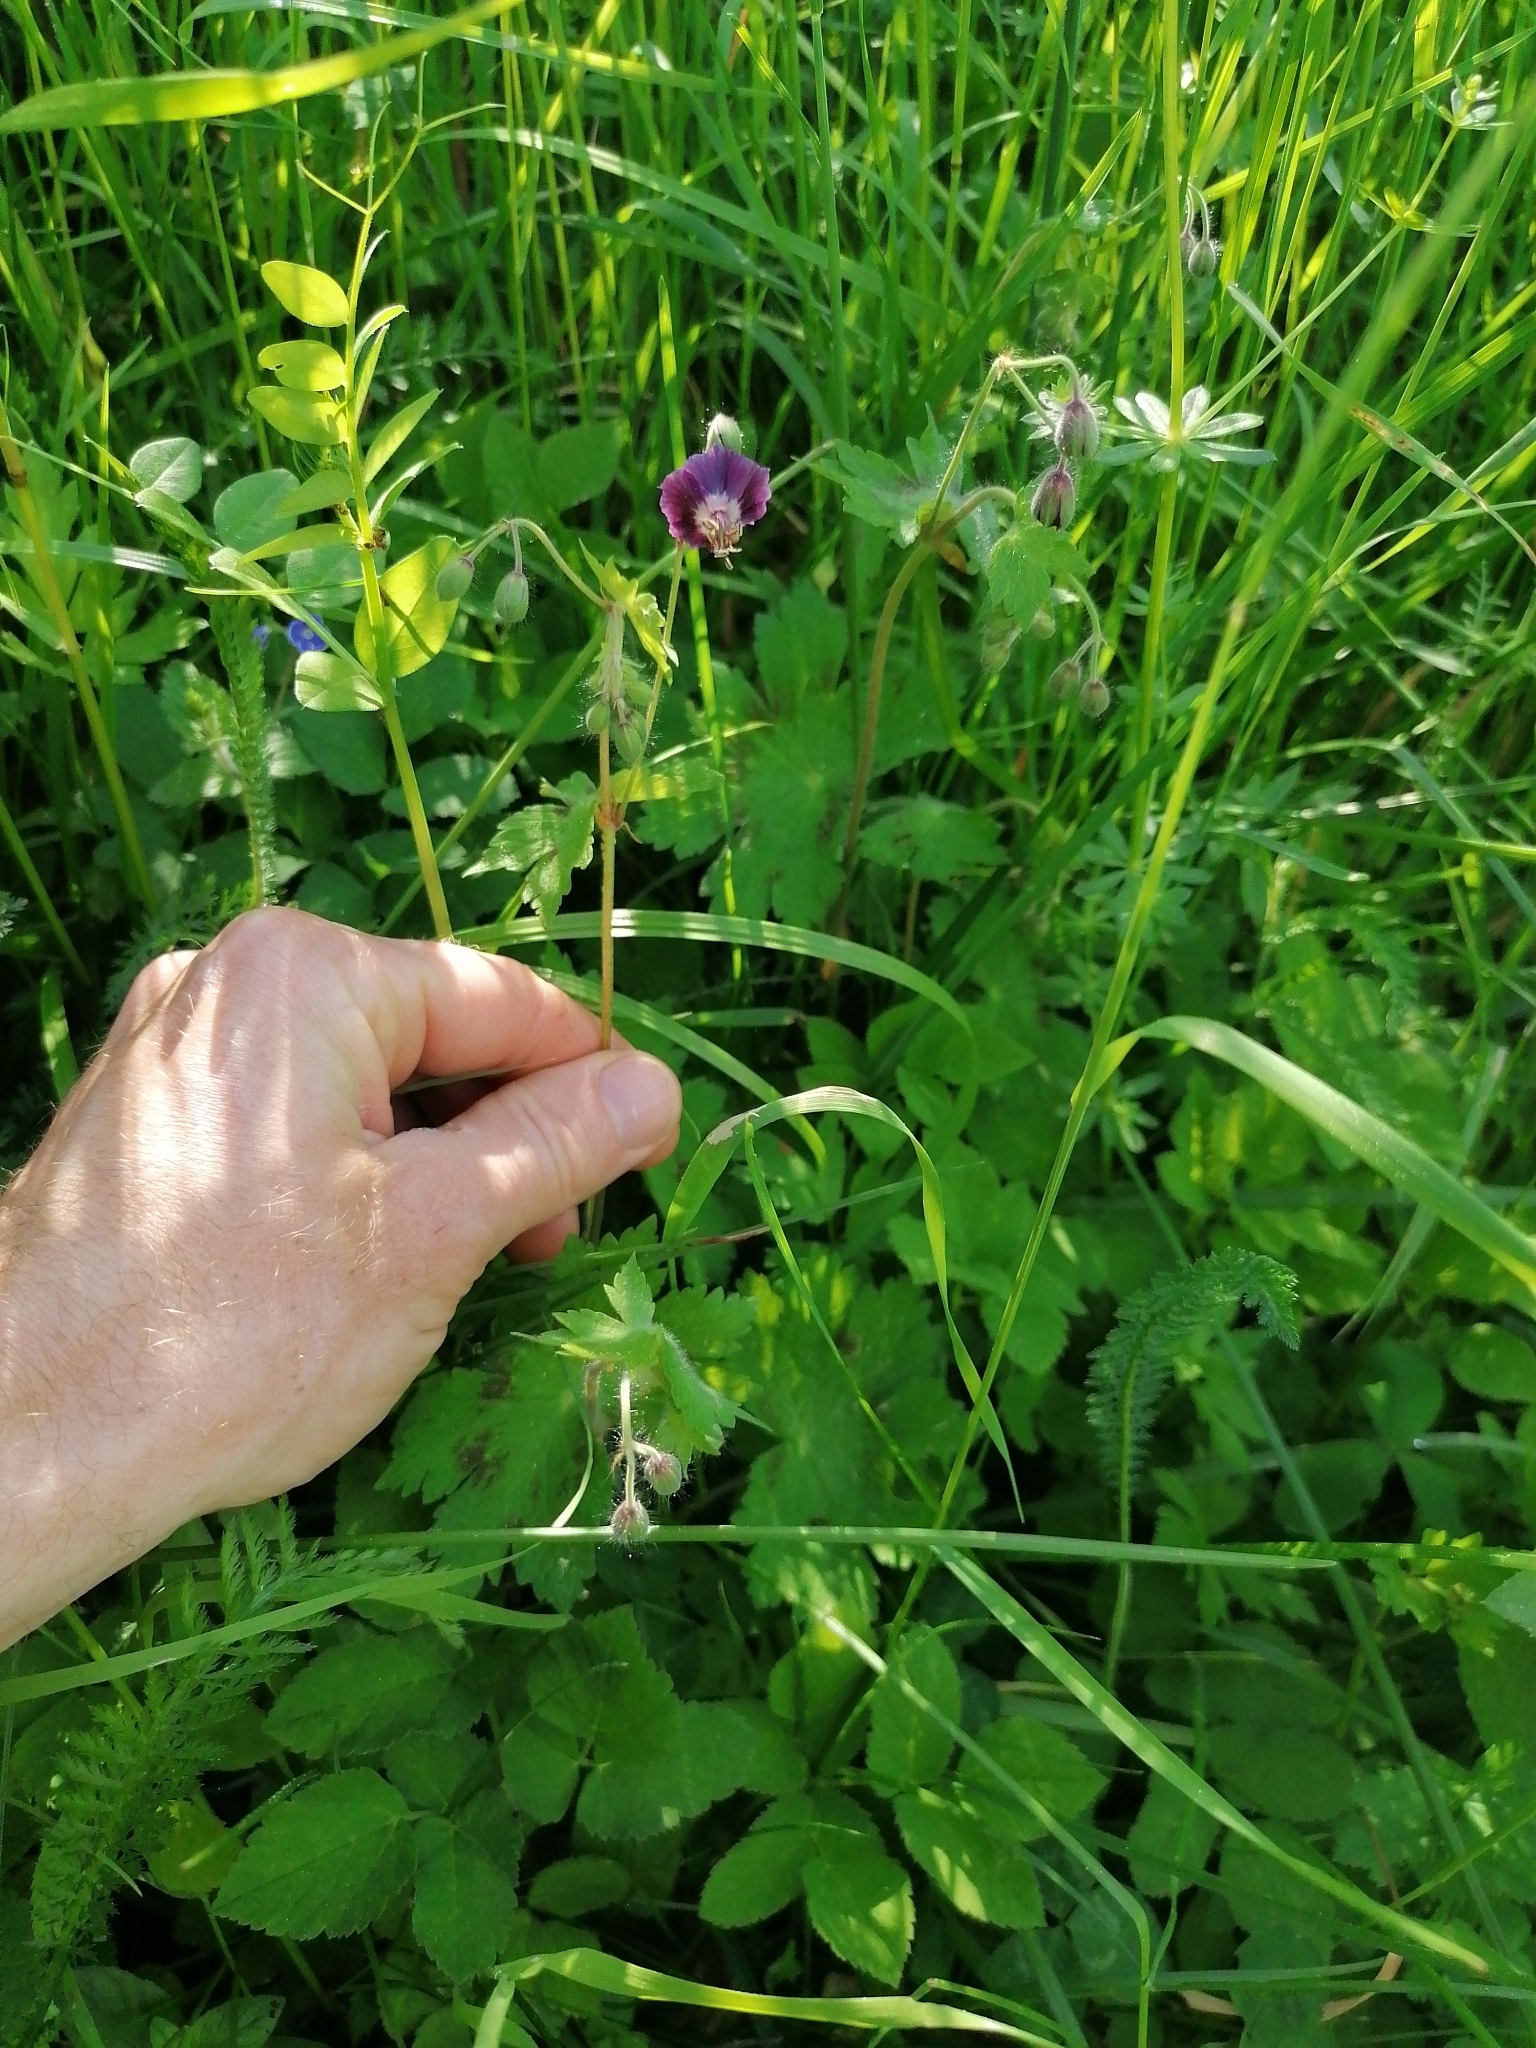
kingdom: Plantae
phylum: Tracheophyta
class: Magnoliopsida
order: Geraniales
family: Geraniaceae
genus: Geranium
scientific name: Geranium phaeum
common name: Dusky crane's-bill
